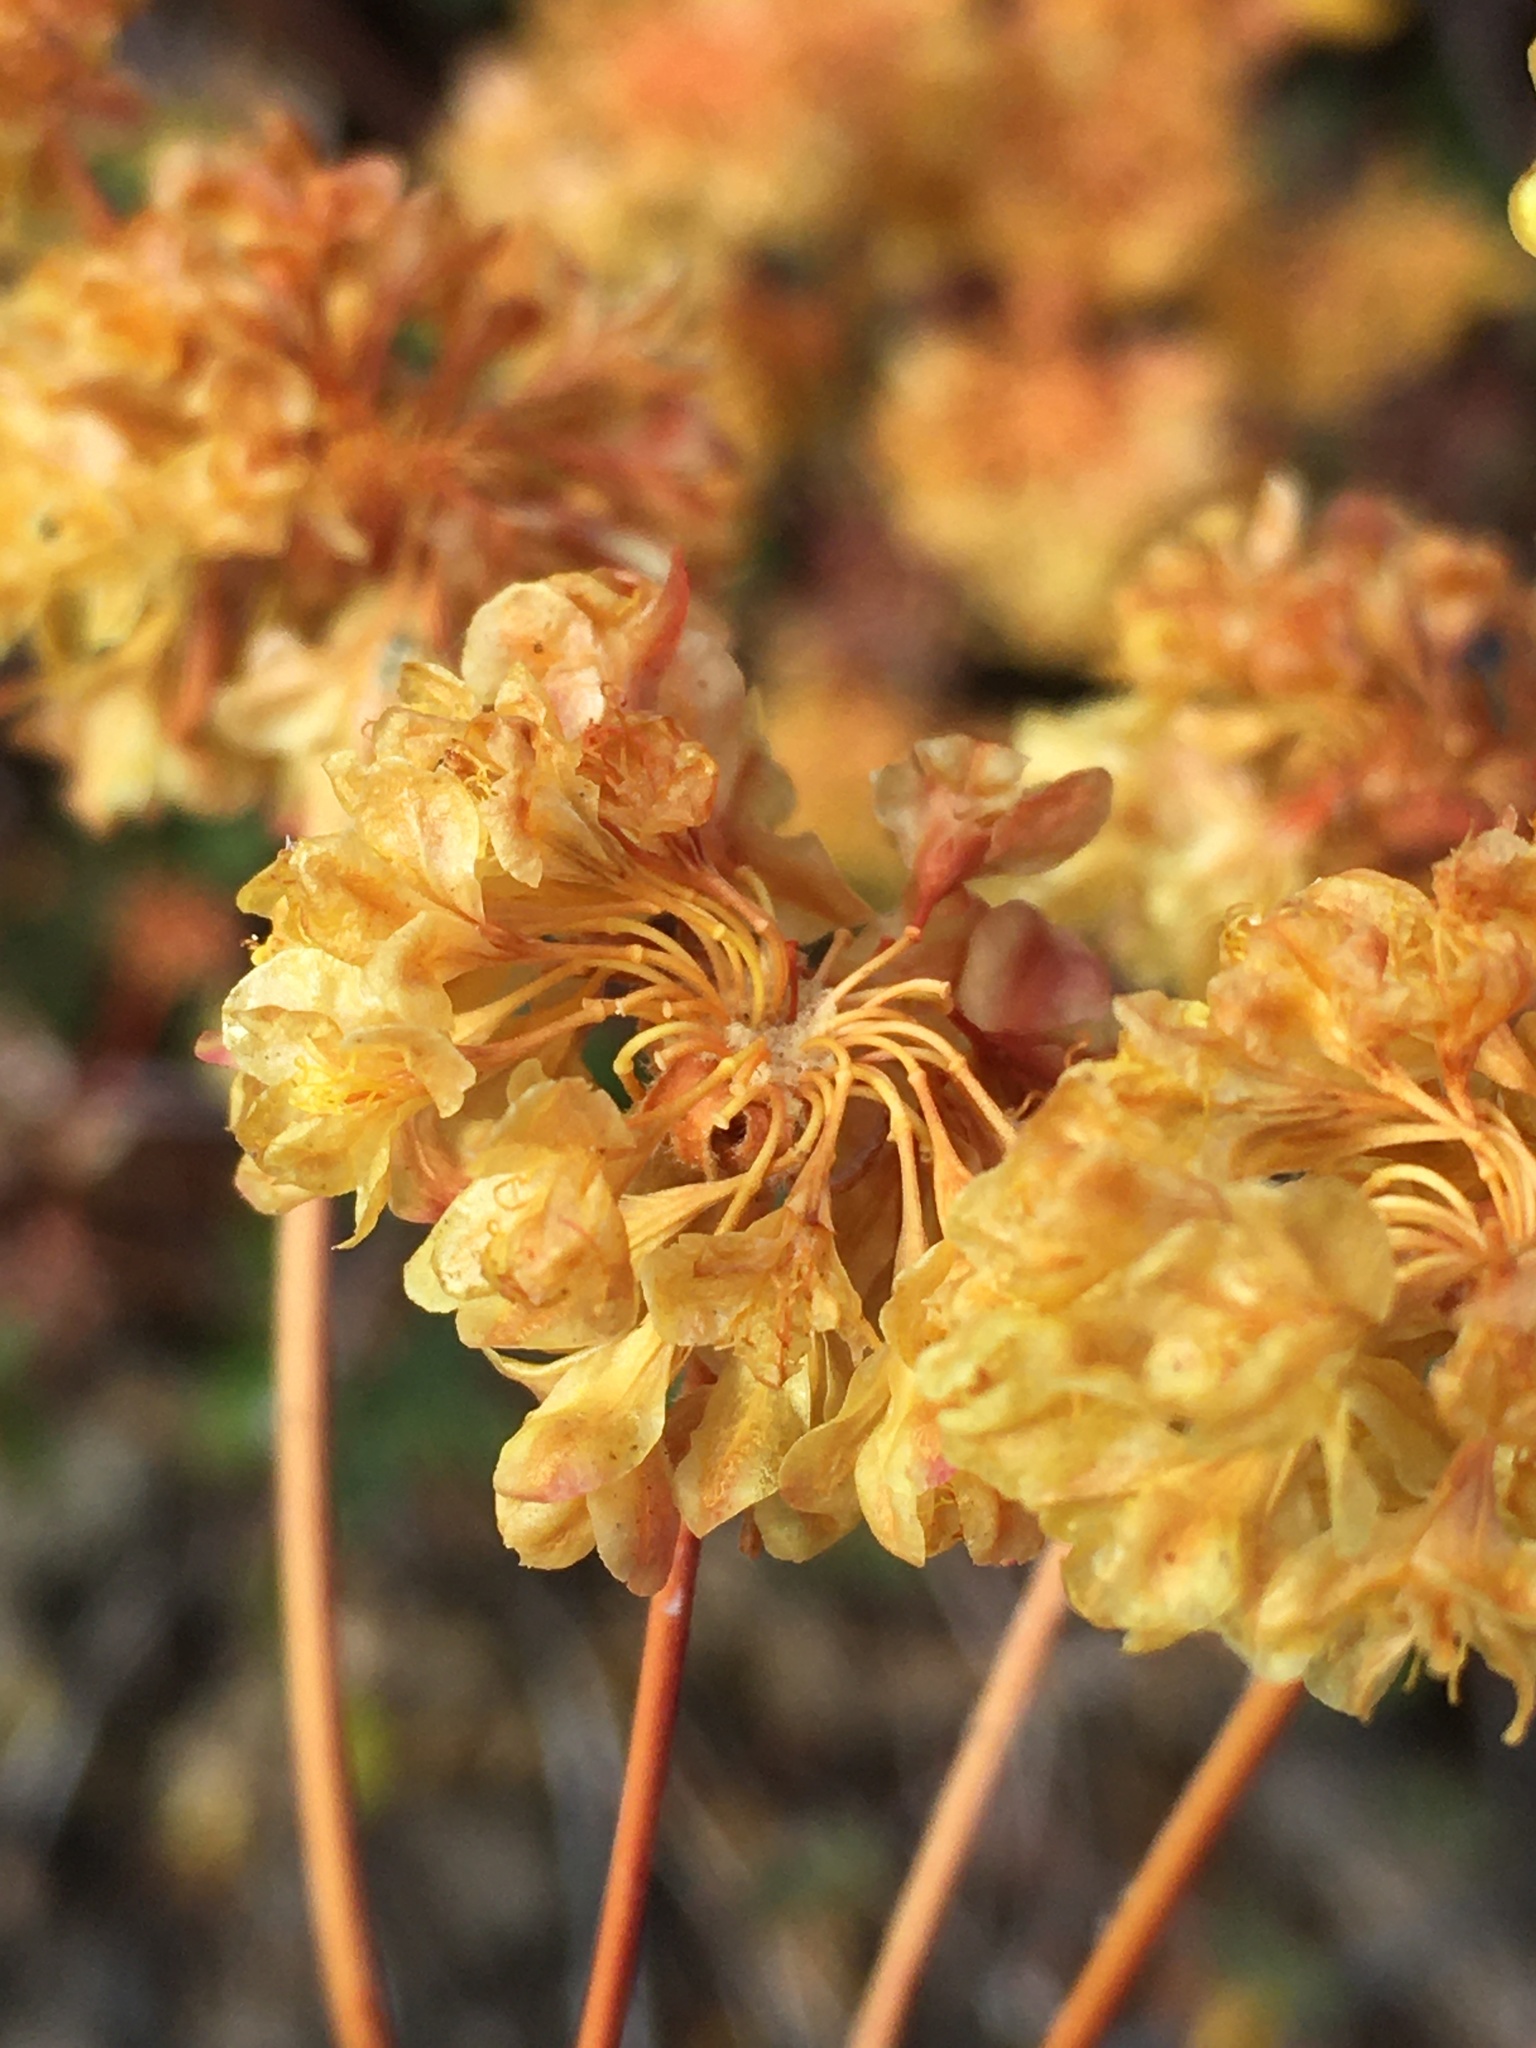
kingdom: Plantae
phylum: Tracheophyta
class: Magnoliopsida
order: Caryophyllales
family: Polygonaceae
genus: Eriogonum
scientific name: Eriogonum umbellatum
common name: Sulfur-buckwheat
